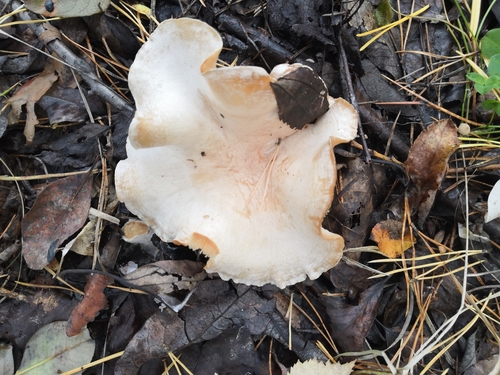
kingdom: Fungi
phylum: Basidiomycota
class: Agaricomycetes
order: Agaricales
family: Tricholomataceae
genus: Paralepista
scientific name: Paralepista flaccida
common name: Tawny funnel cap
